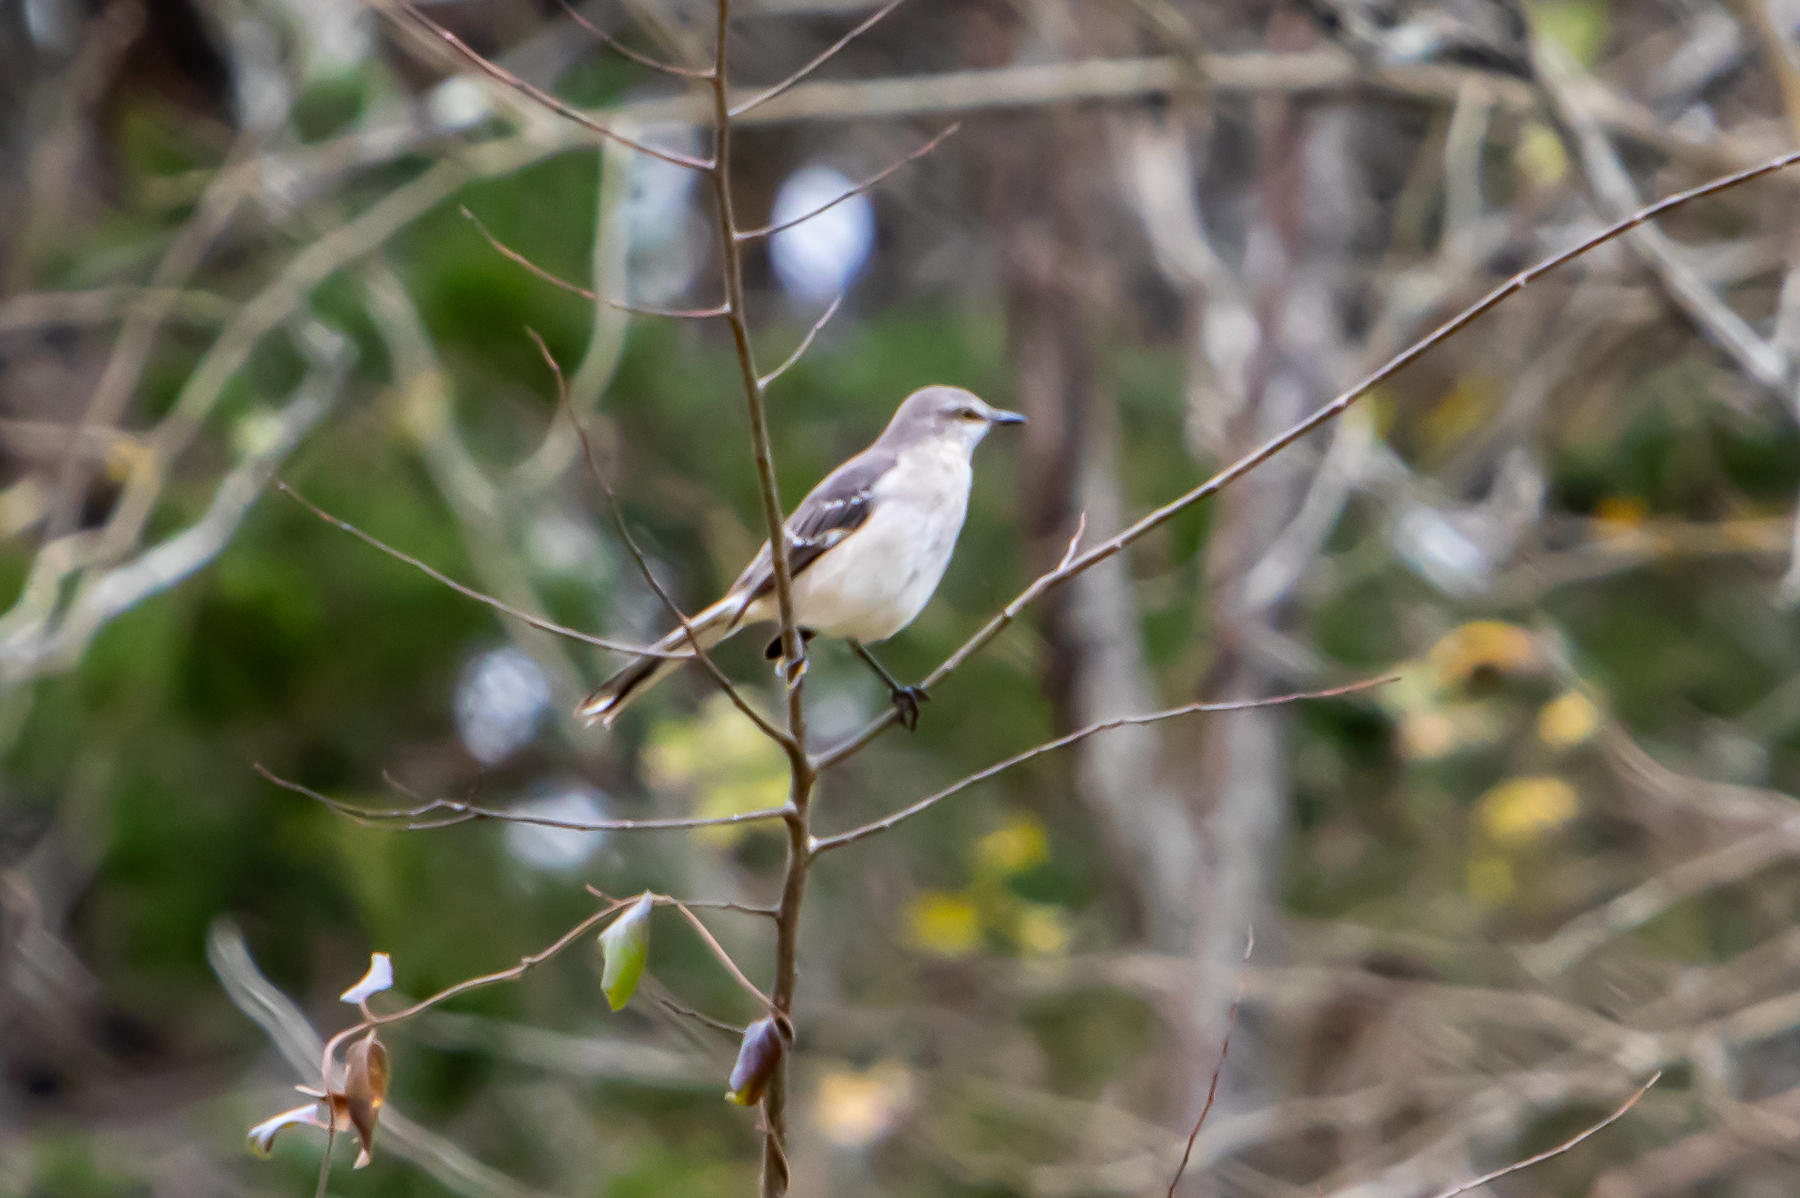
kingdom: Animalia
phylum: Chordata
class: Aves
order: Passeriformes
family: Mimidae
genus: Mimus
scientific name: Mimus polyglottos
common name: Northern mockingbird
